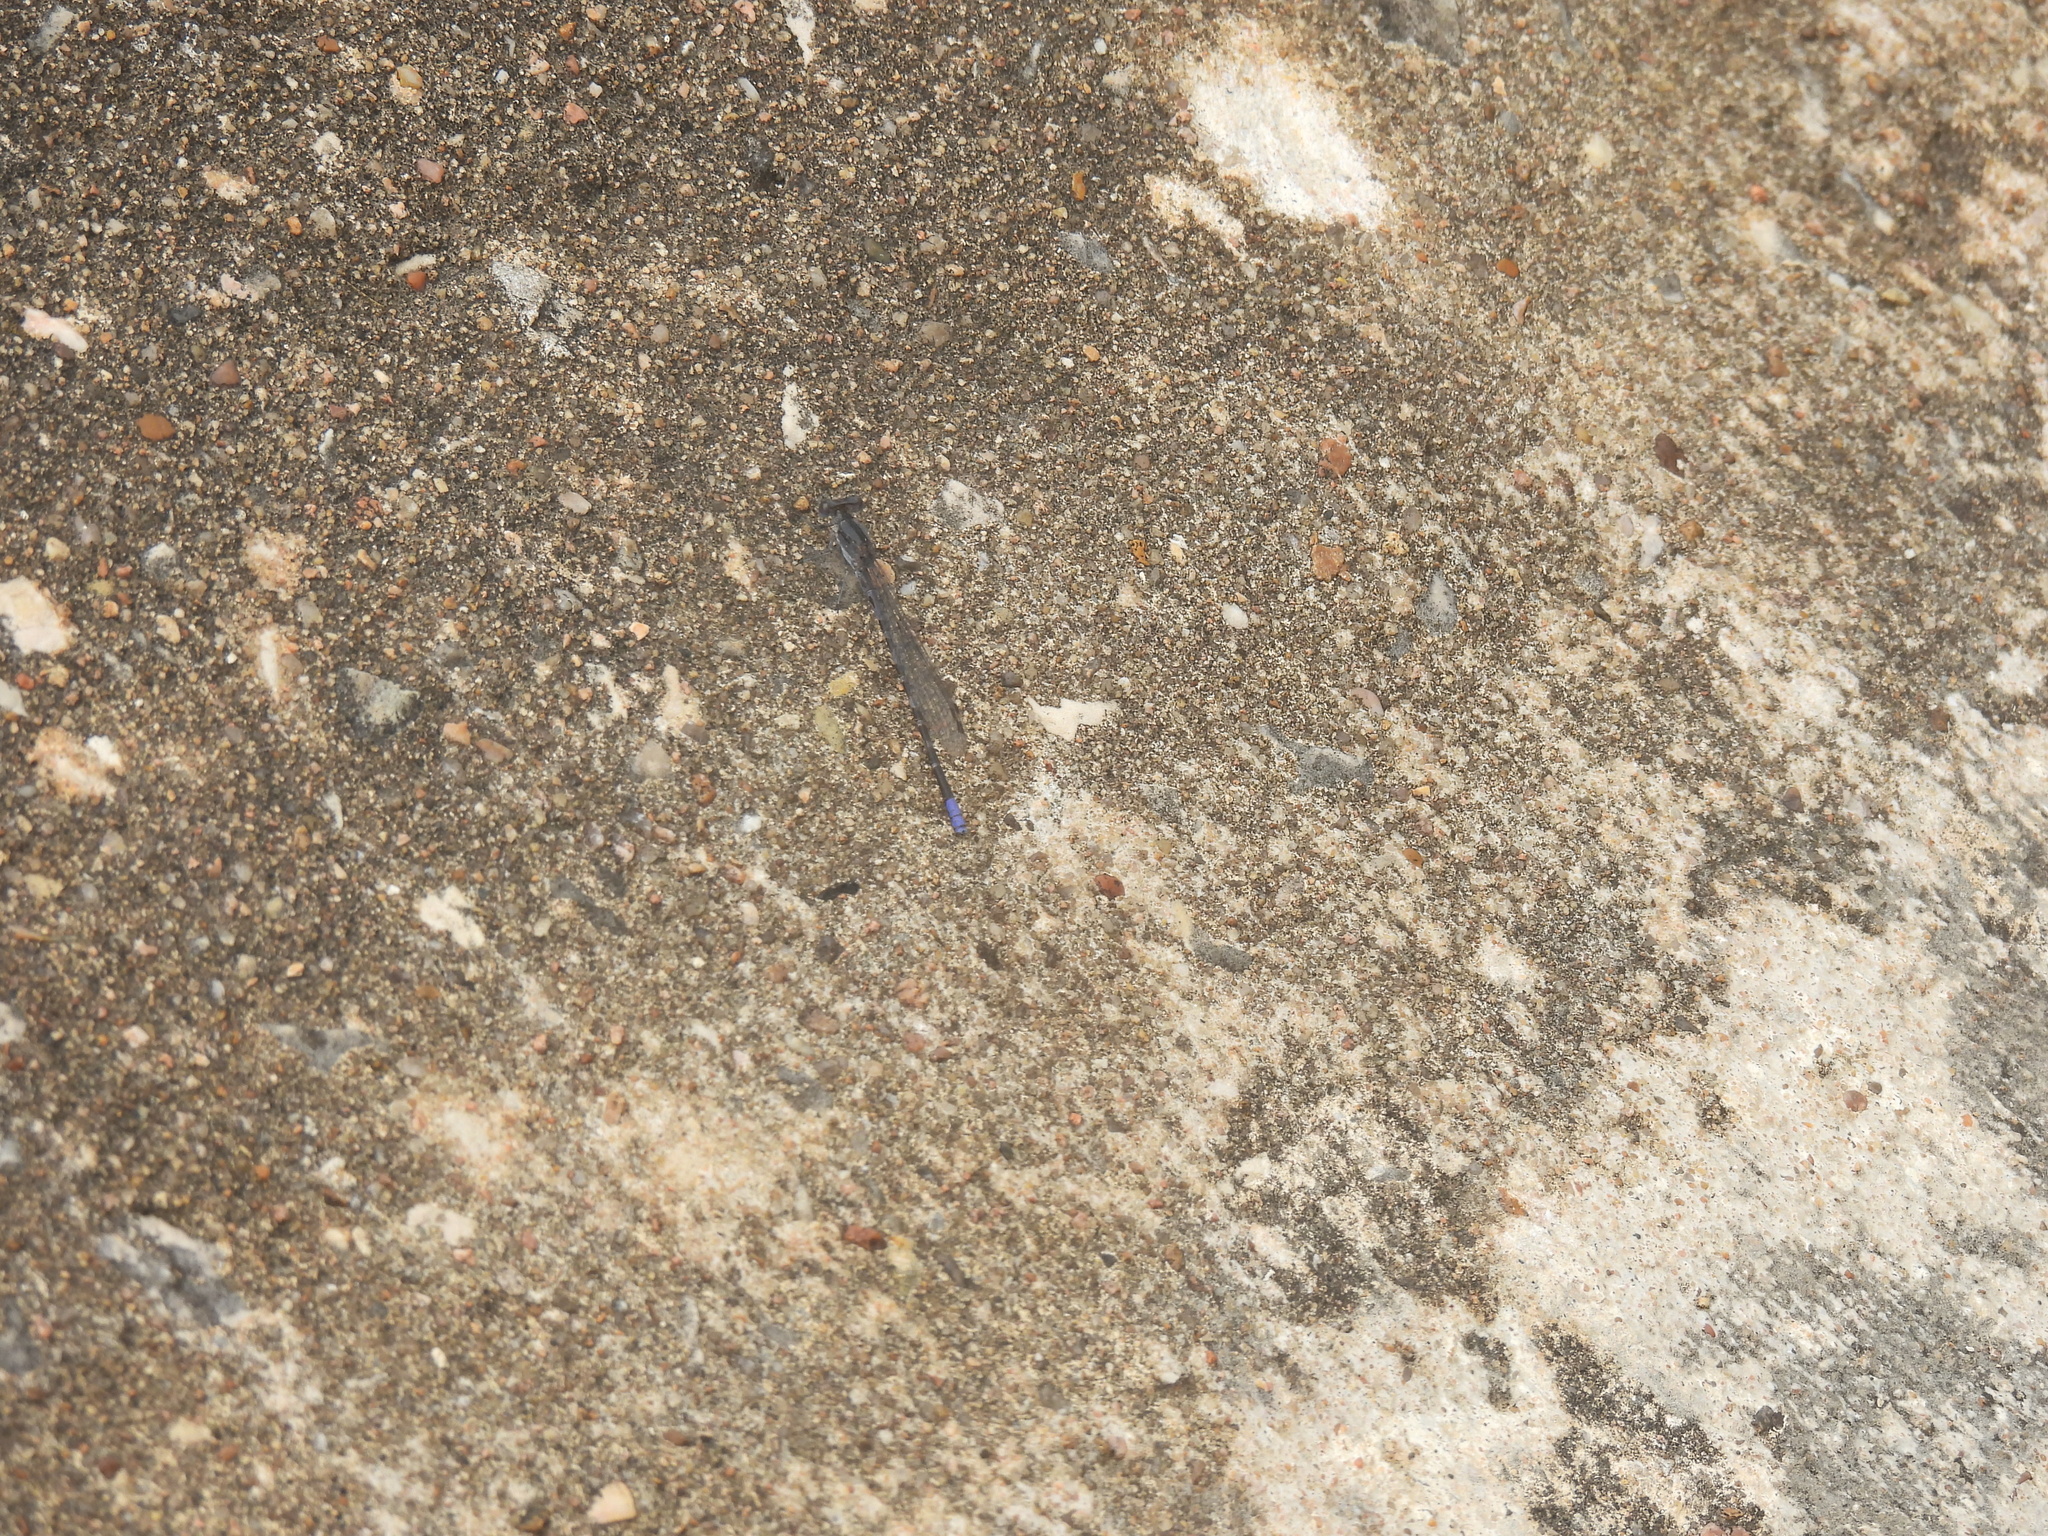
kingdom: Animalia
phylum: Arthropoda
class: Insecta
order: Odonata
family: Coenagrionidae
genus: Argia
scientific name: Argia immunda
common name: Kiowa dancer
